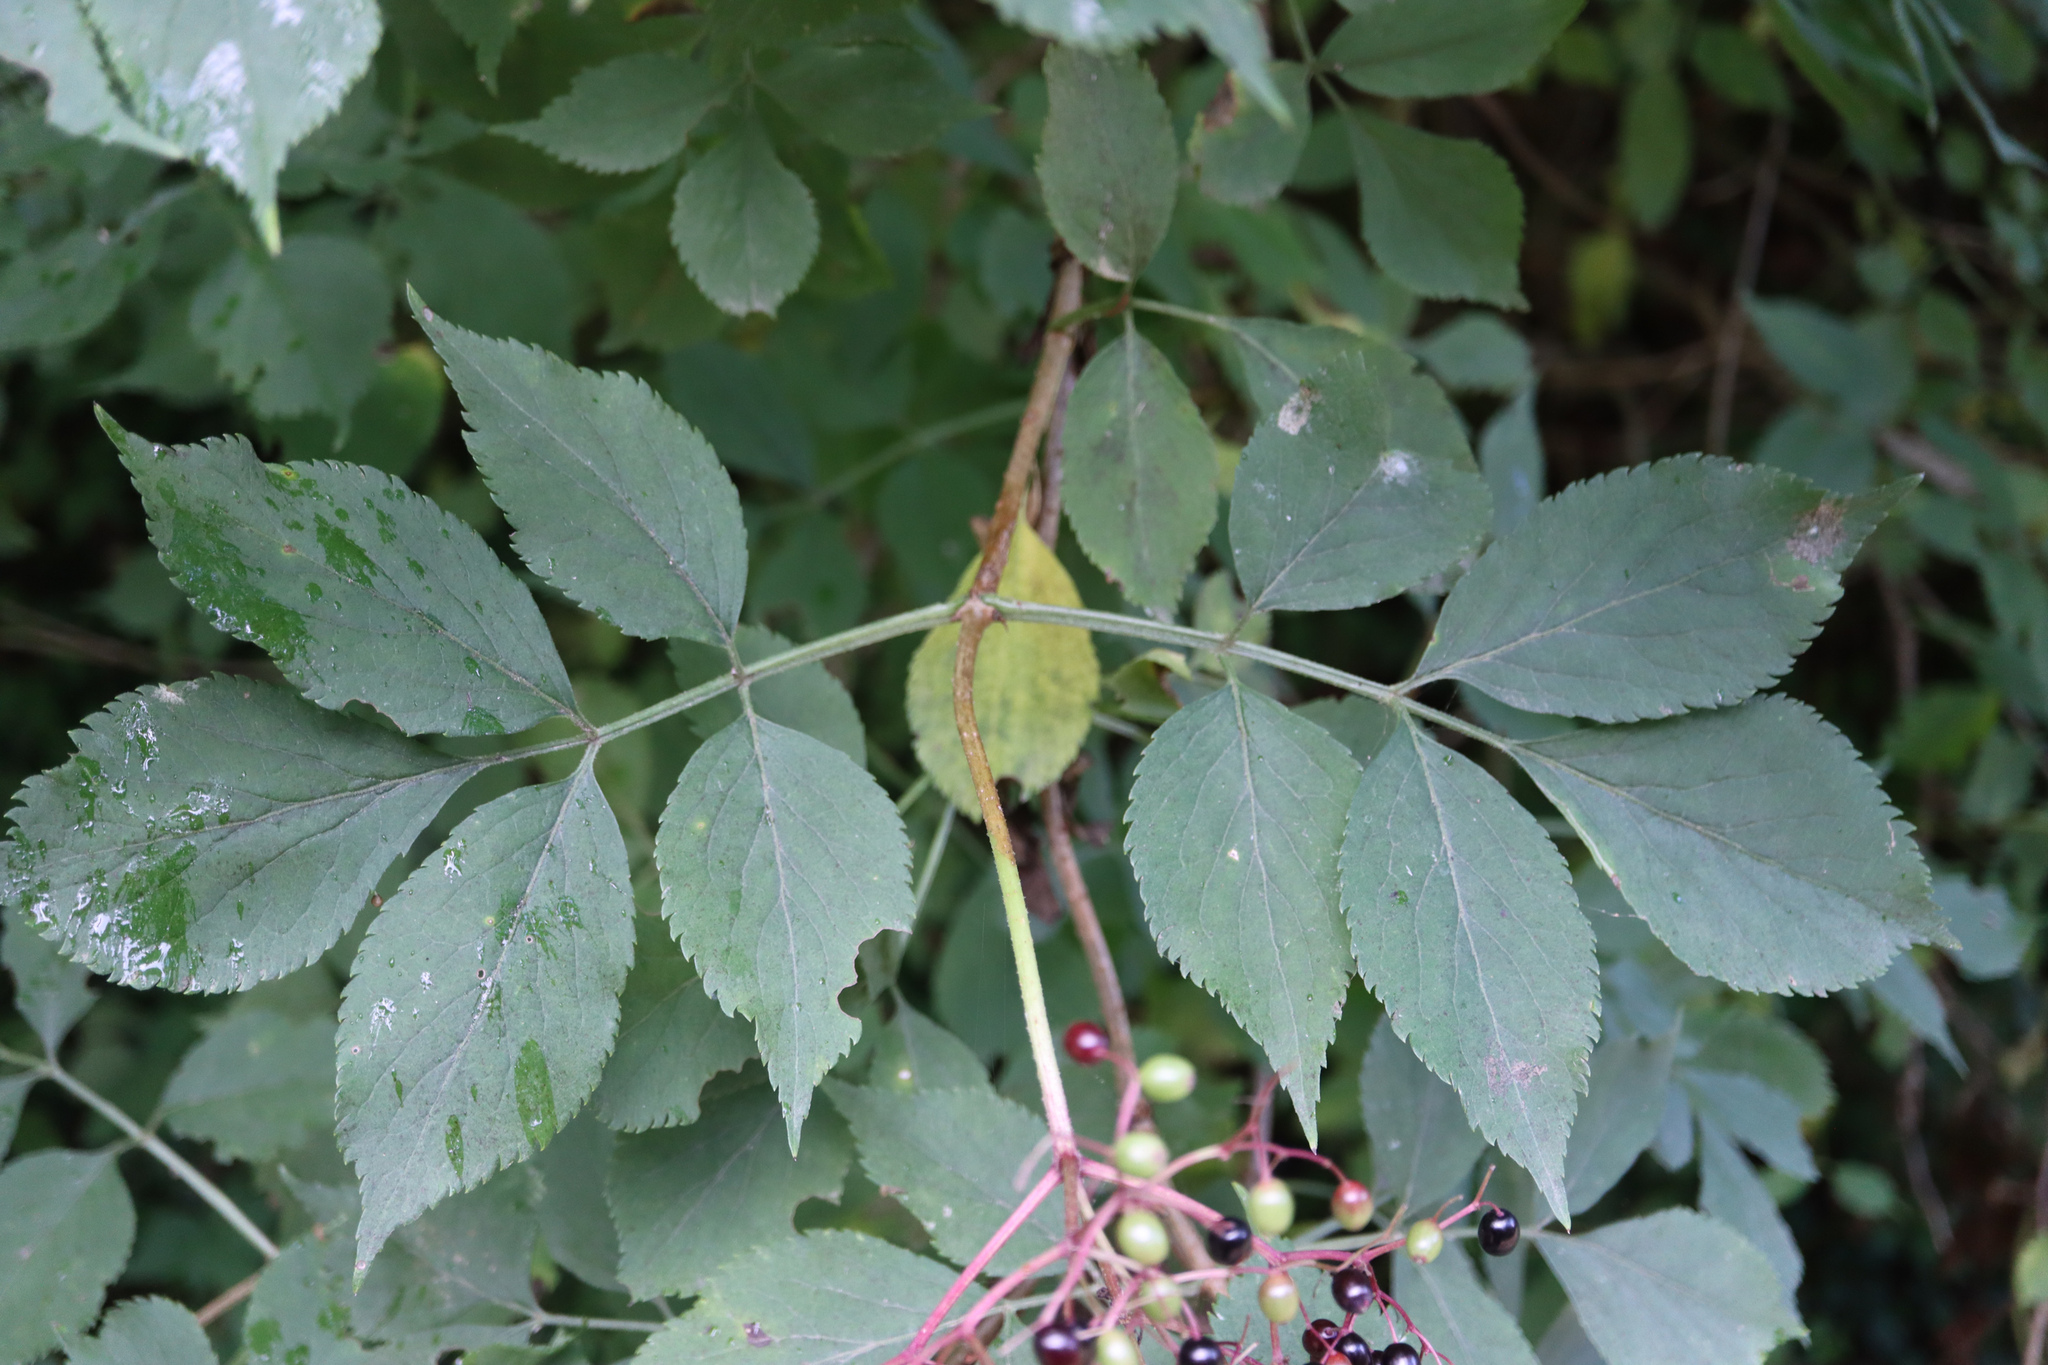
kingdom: Plantae
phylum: Tracheophyta
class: Magnoliopsida
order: Dipsacales
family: Viburnaceae
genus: Sambucus
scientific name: Sambucus nigra
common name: Elder
